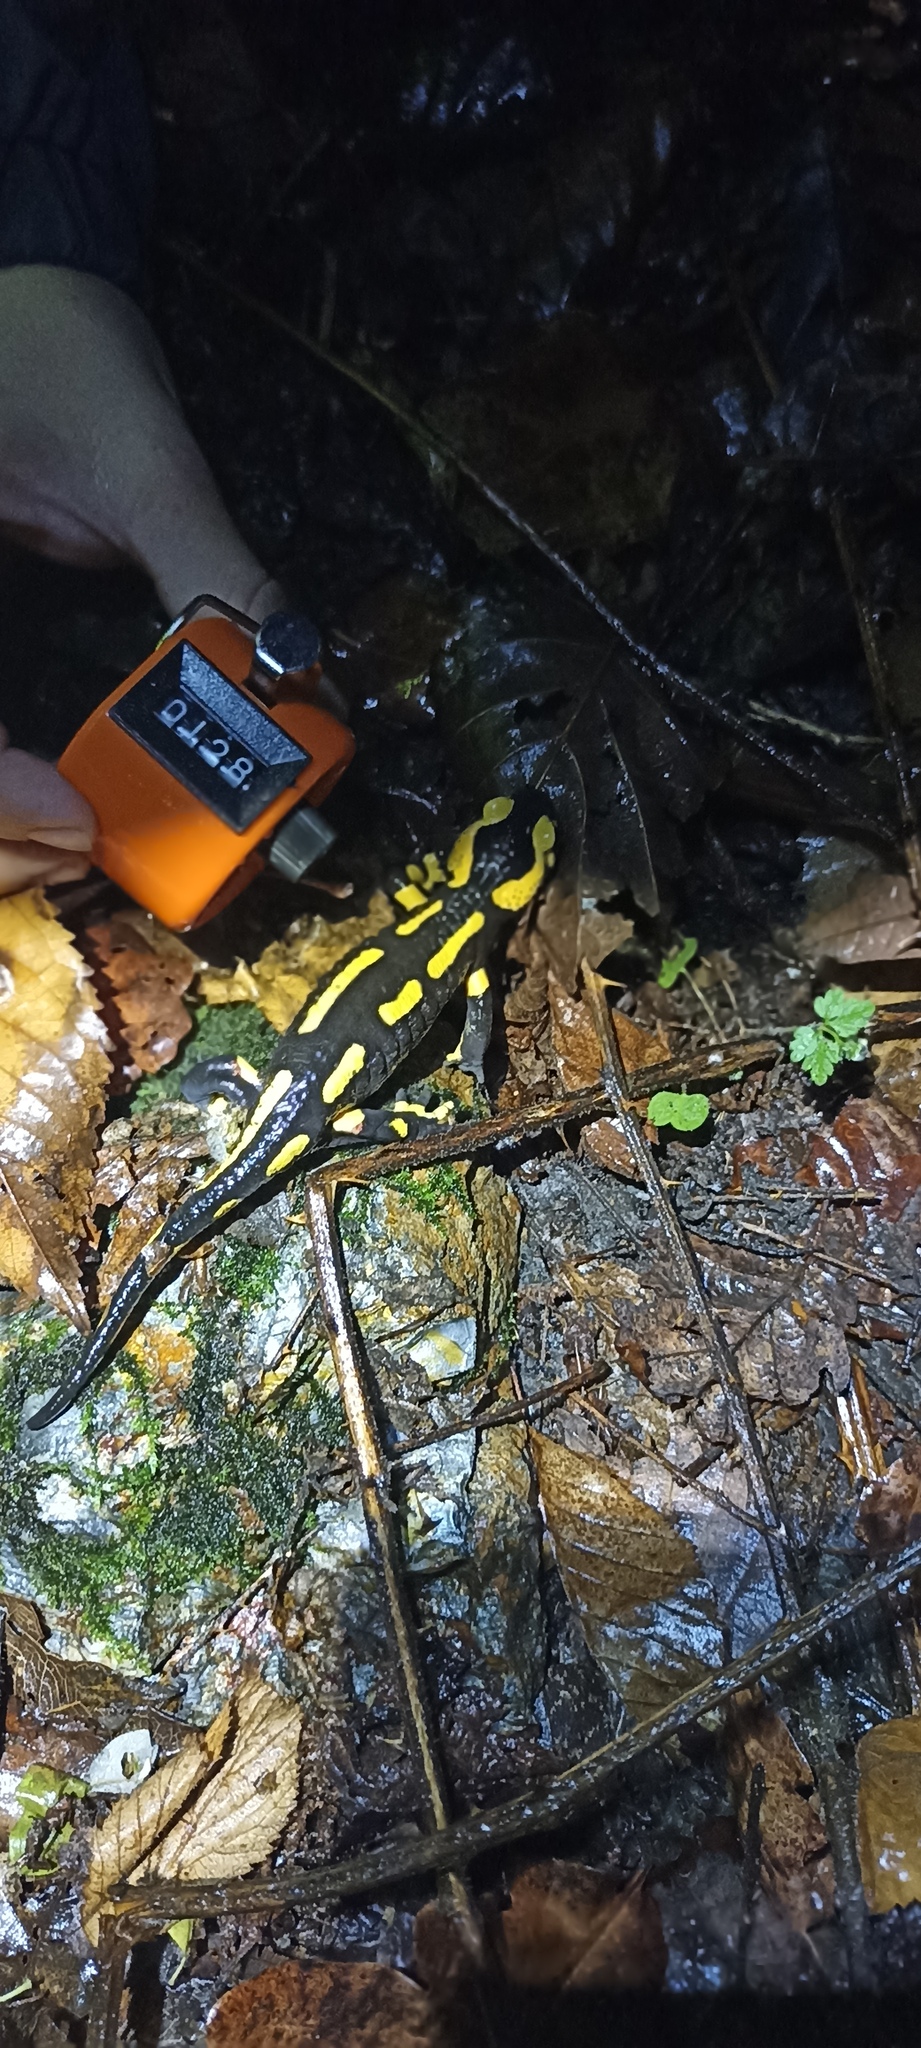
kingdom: Animalia
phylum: Chordata
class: Amphibia
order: Caudata
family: Salamandridae
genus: Salamandra
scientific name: Salamandra salamandra
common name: Fire salamander
